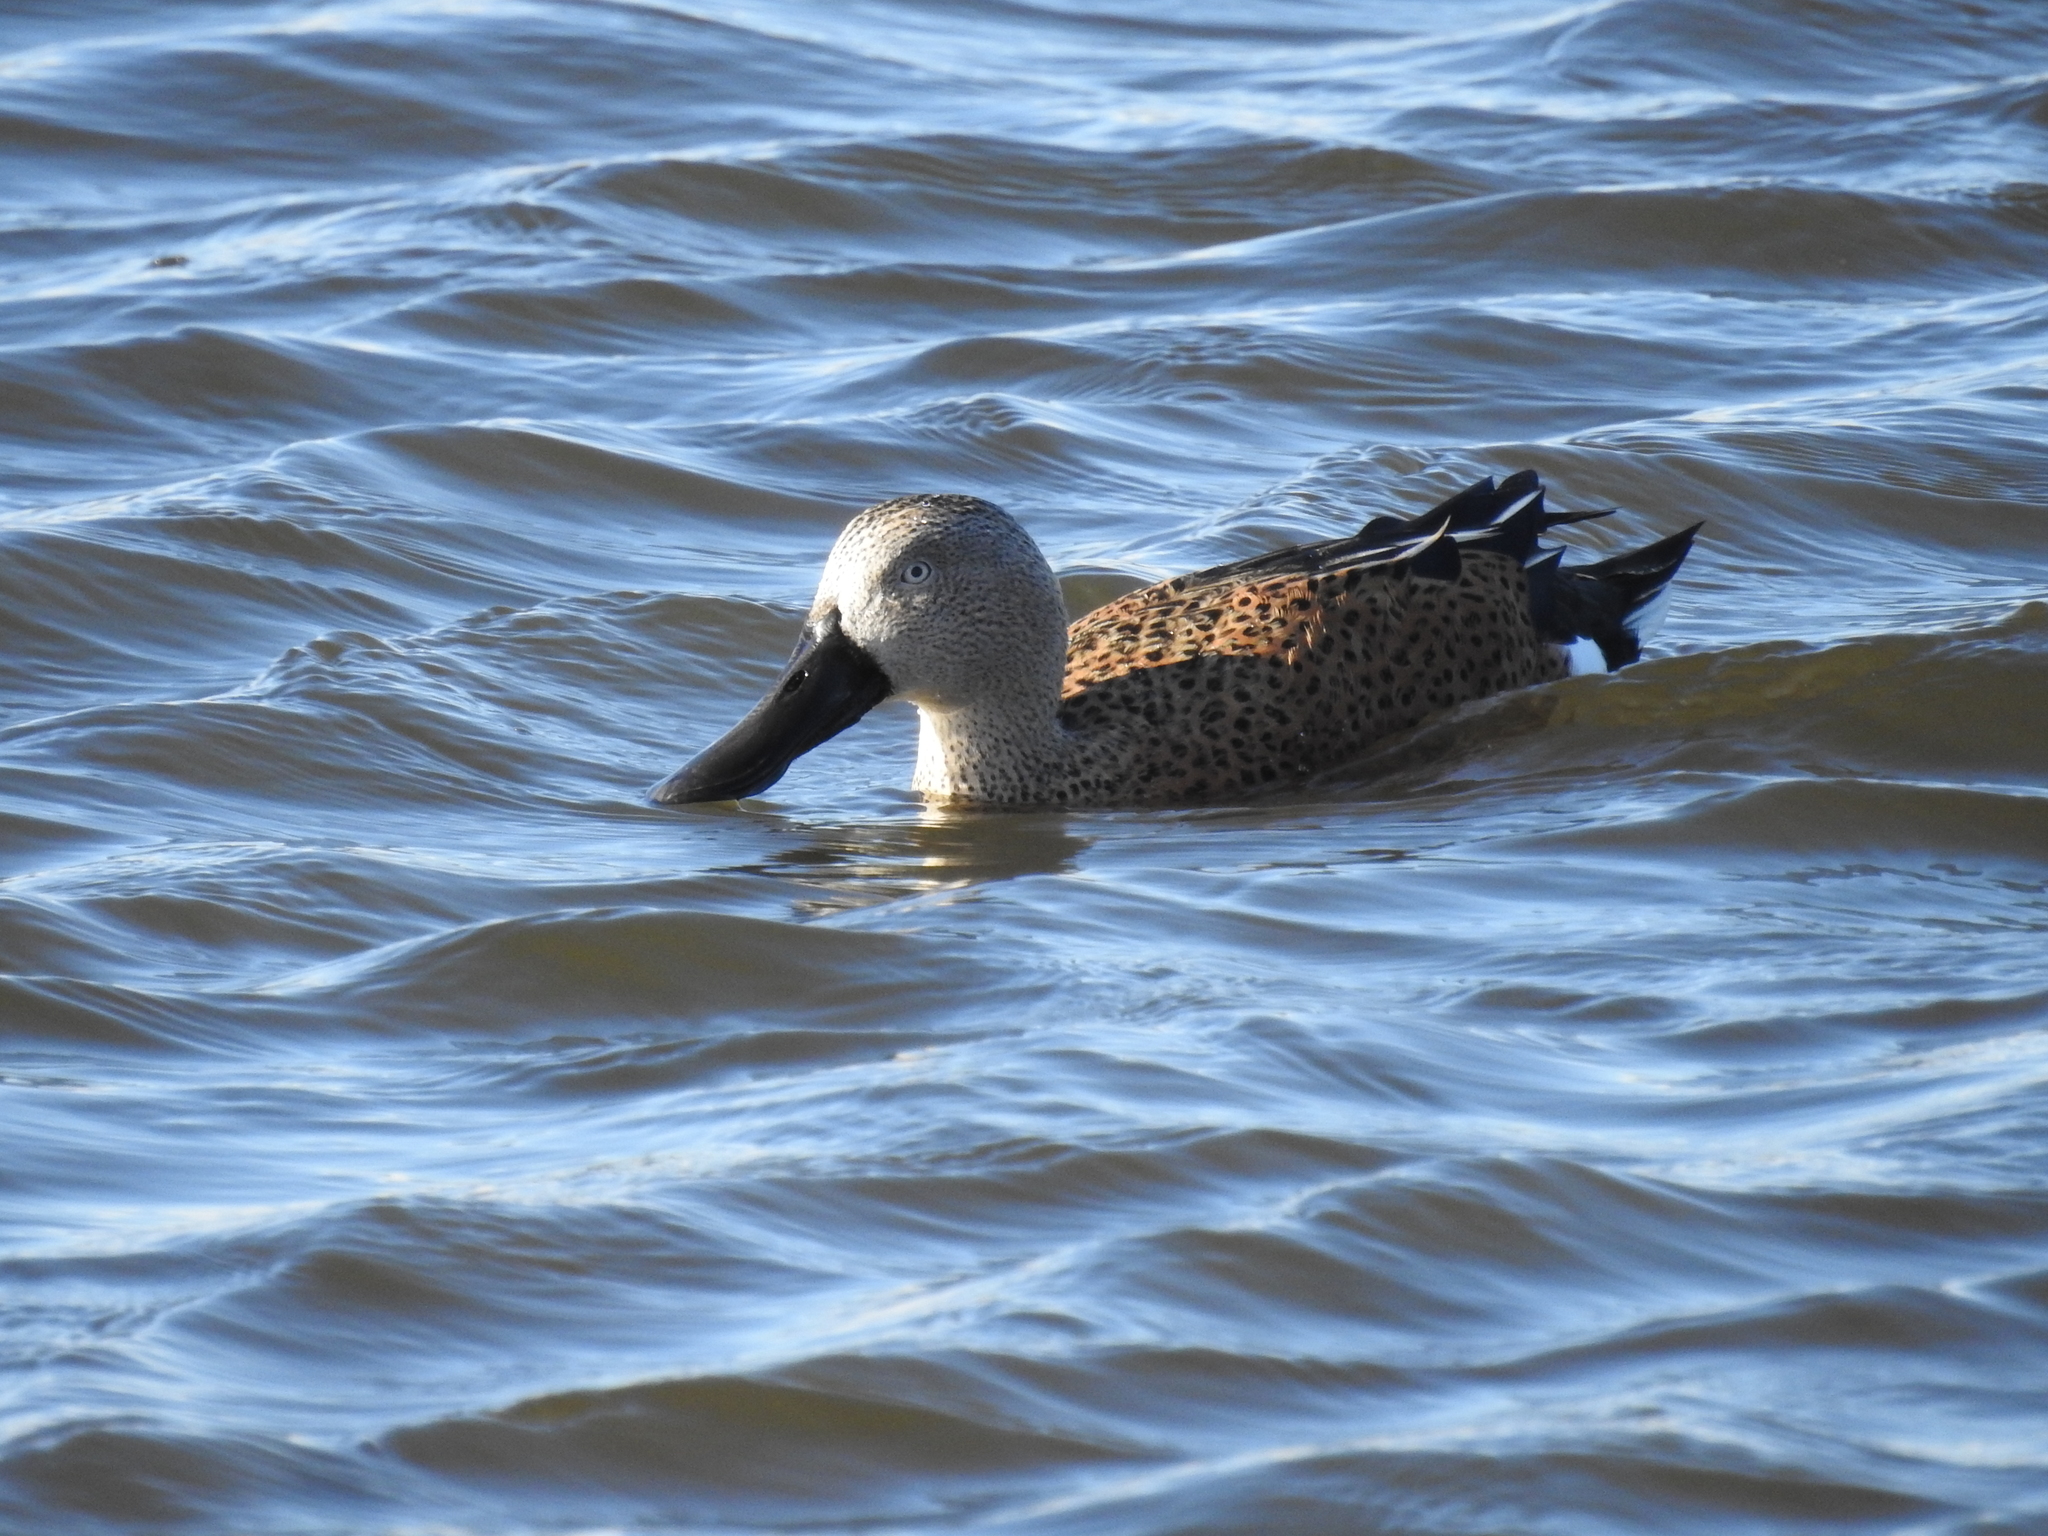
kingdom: Animalia
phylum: Chordata
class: Aves
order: Anseriformes
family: Anatidae
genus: Spatula
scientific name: Spatula platalea
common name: Red shoveler
